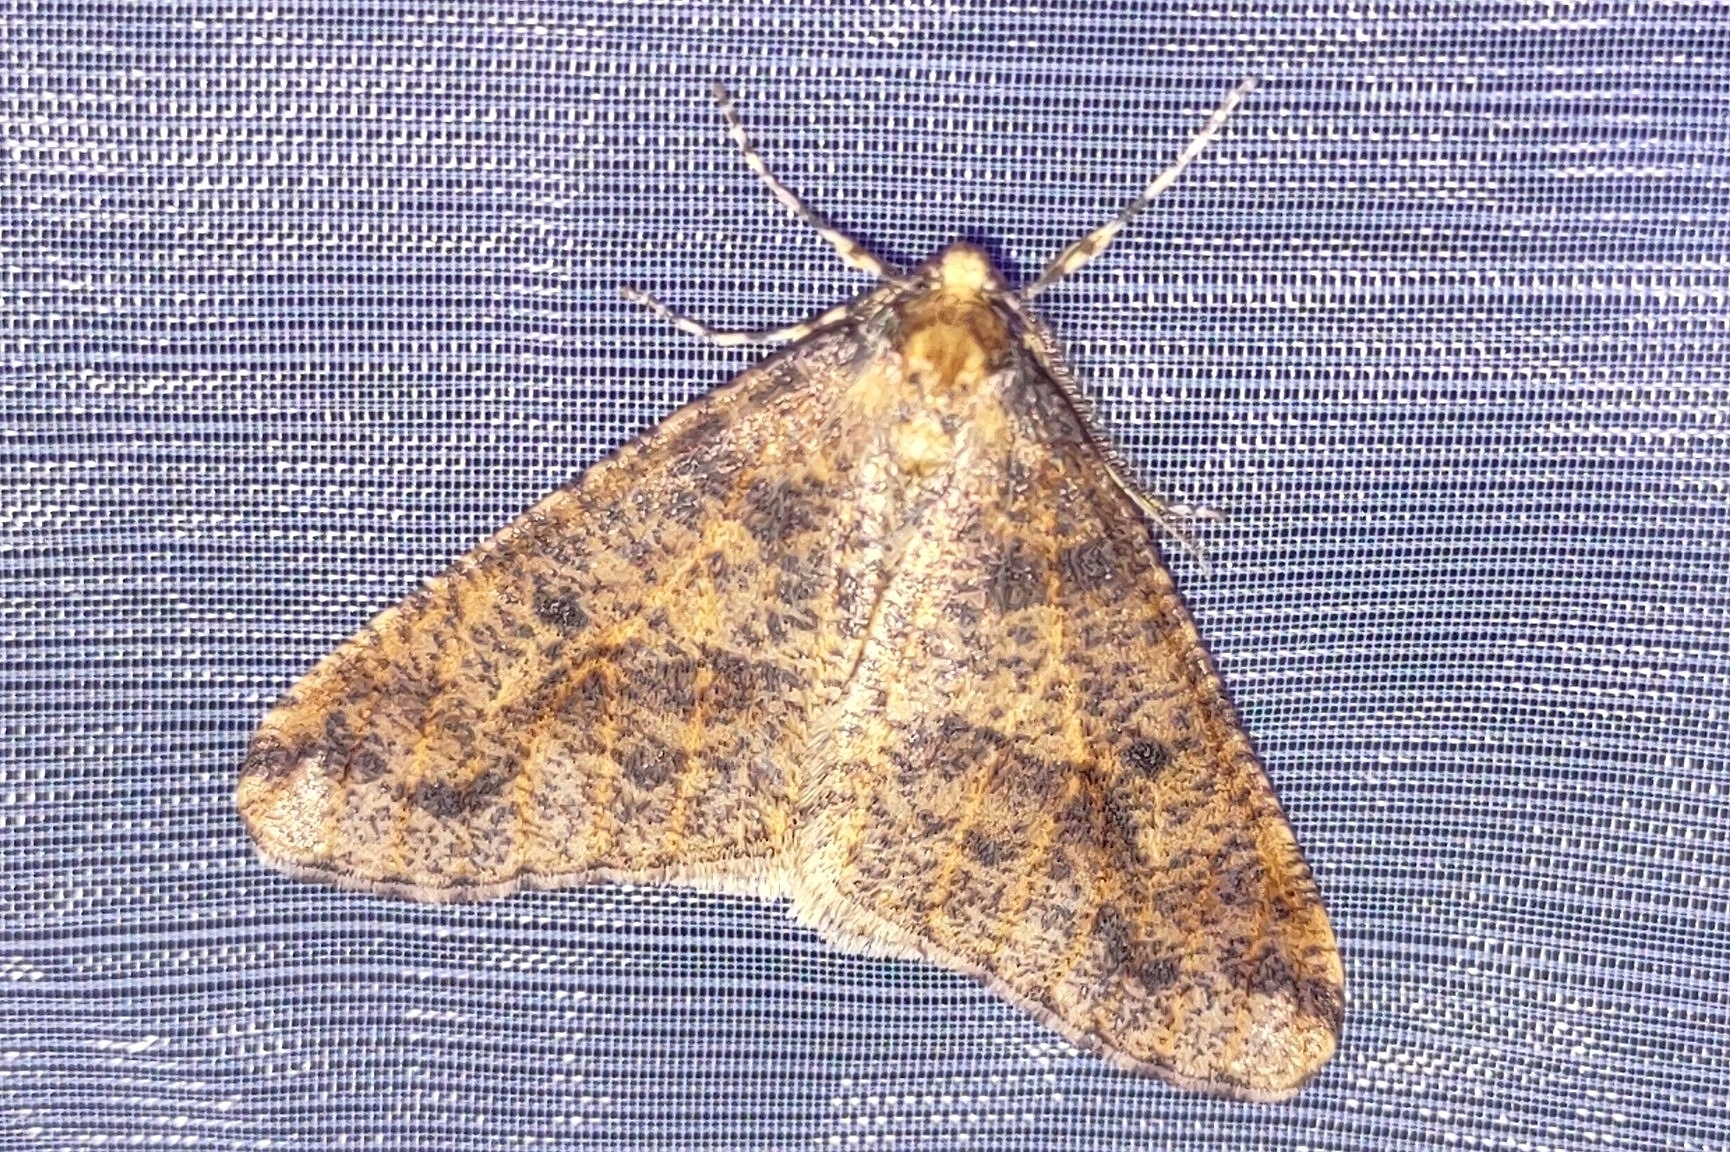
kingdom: Animalia
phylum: Arthropoda
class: Insecta
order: Lepidoptera
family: Geometridae
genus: Erannis
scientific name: Erannis defoliaria
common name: Mottled umber
